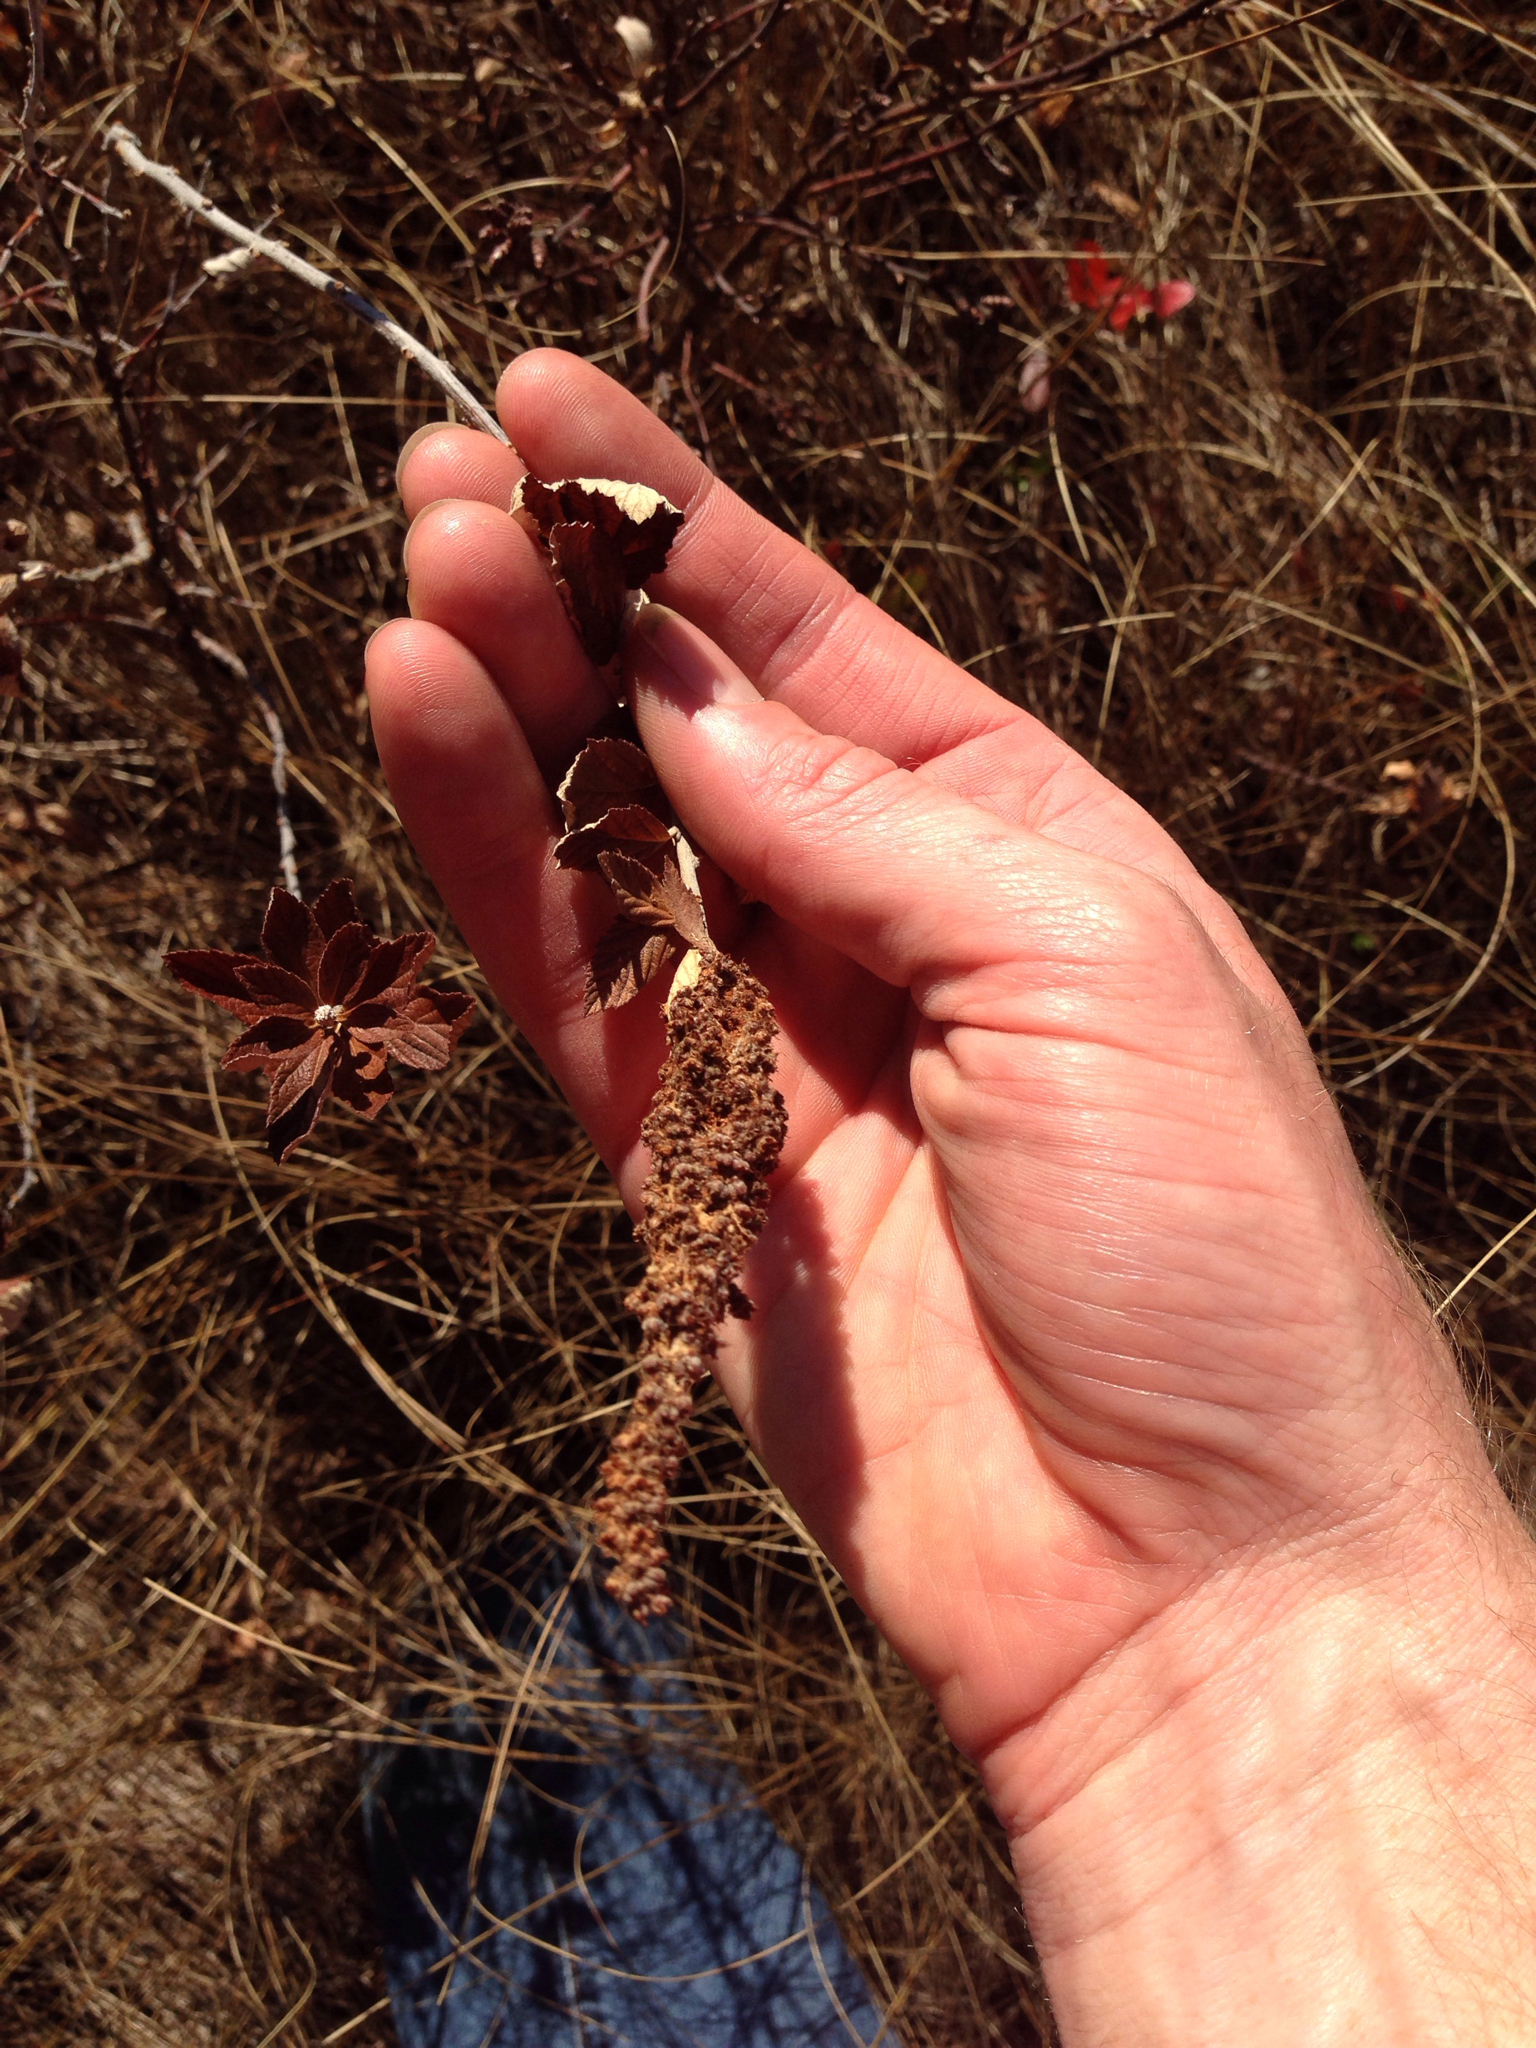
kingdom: Plantae
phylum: Tracheophyta
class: Magnoliopsida
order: Rosales
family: Rosaceae
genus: Spiraea
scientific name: Spiraea tomentosa
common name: Hardhack
